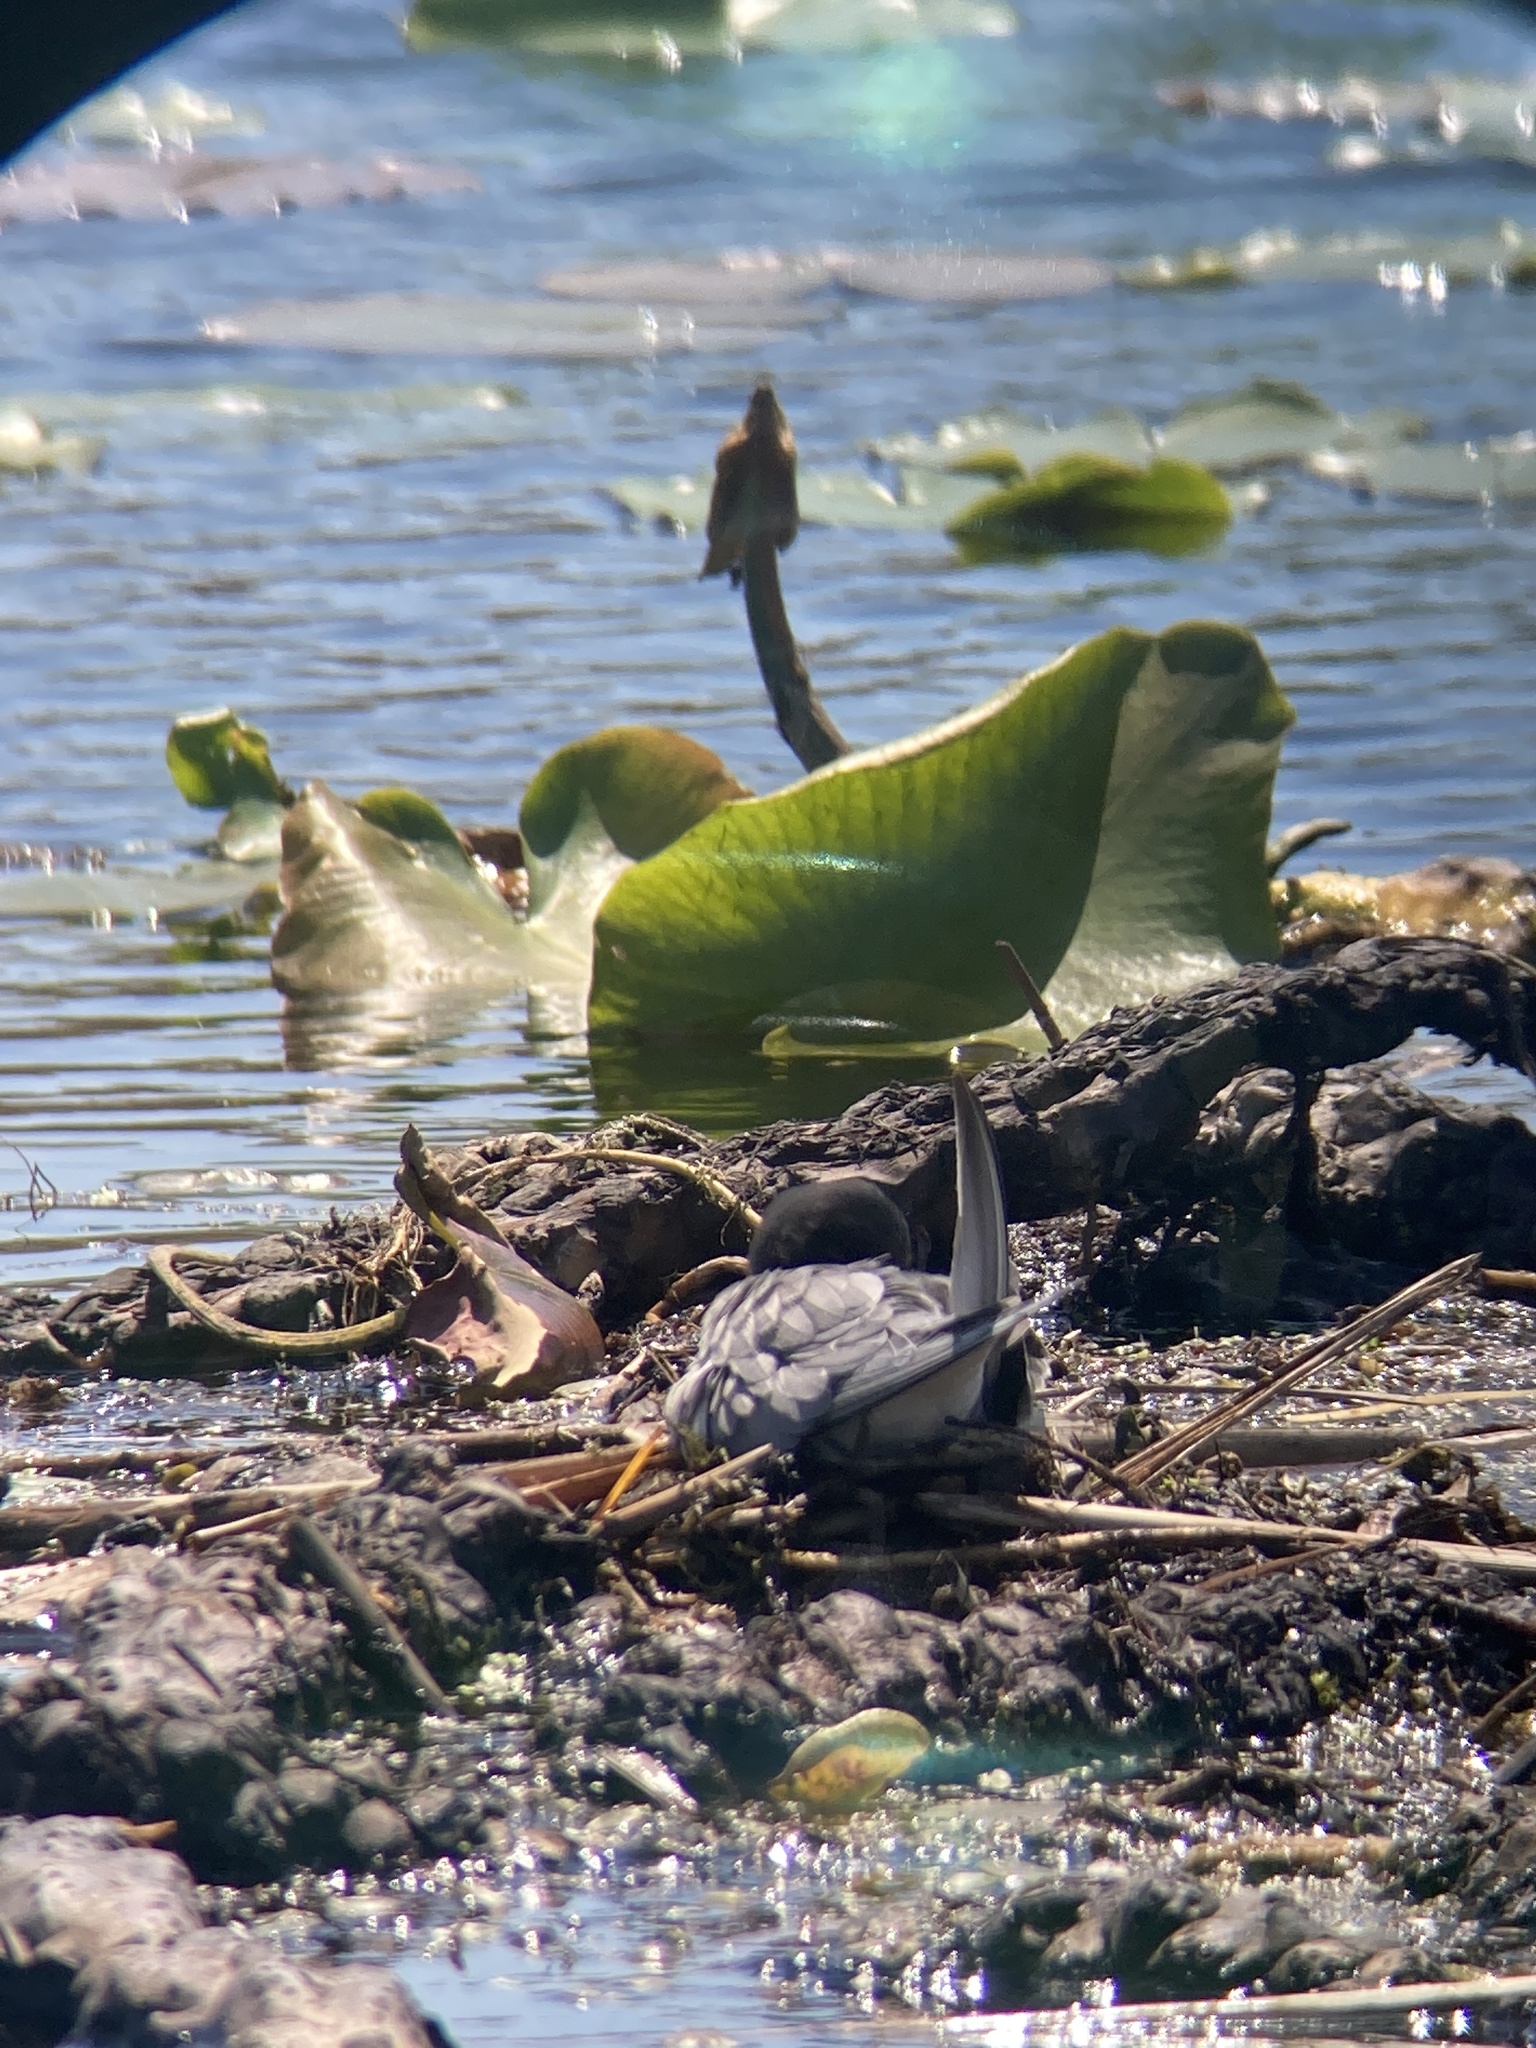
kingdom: Animalia
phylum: Chordata
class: Aves
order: Charadriiformes
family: Laridae
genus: Chlidonias
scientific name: Chlidonias niger
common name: Black tern
